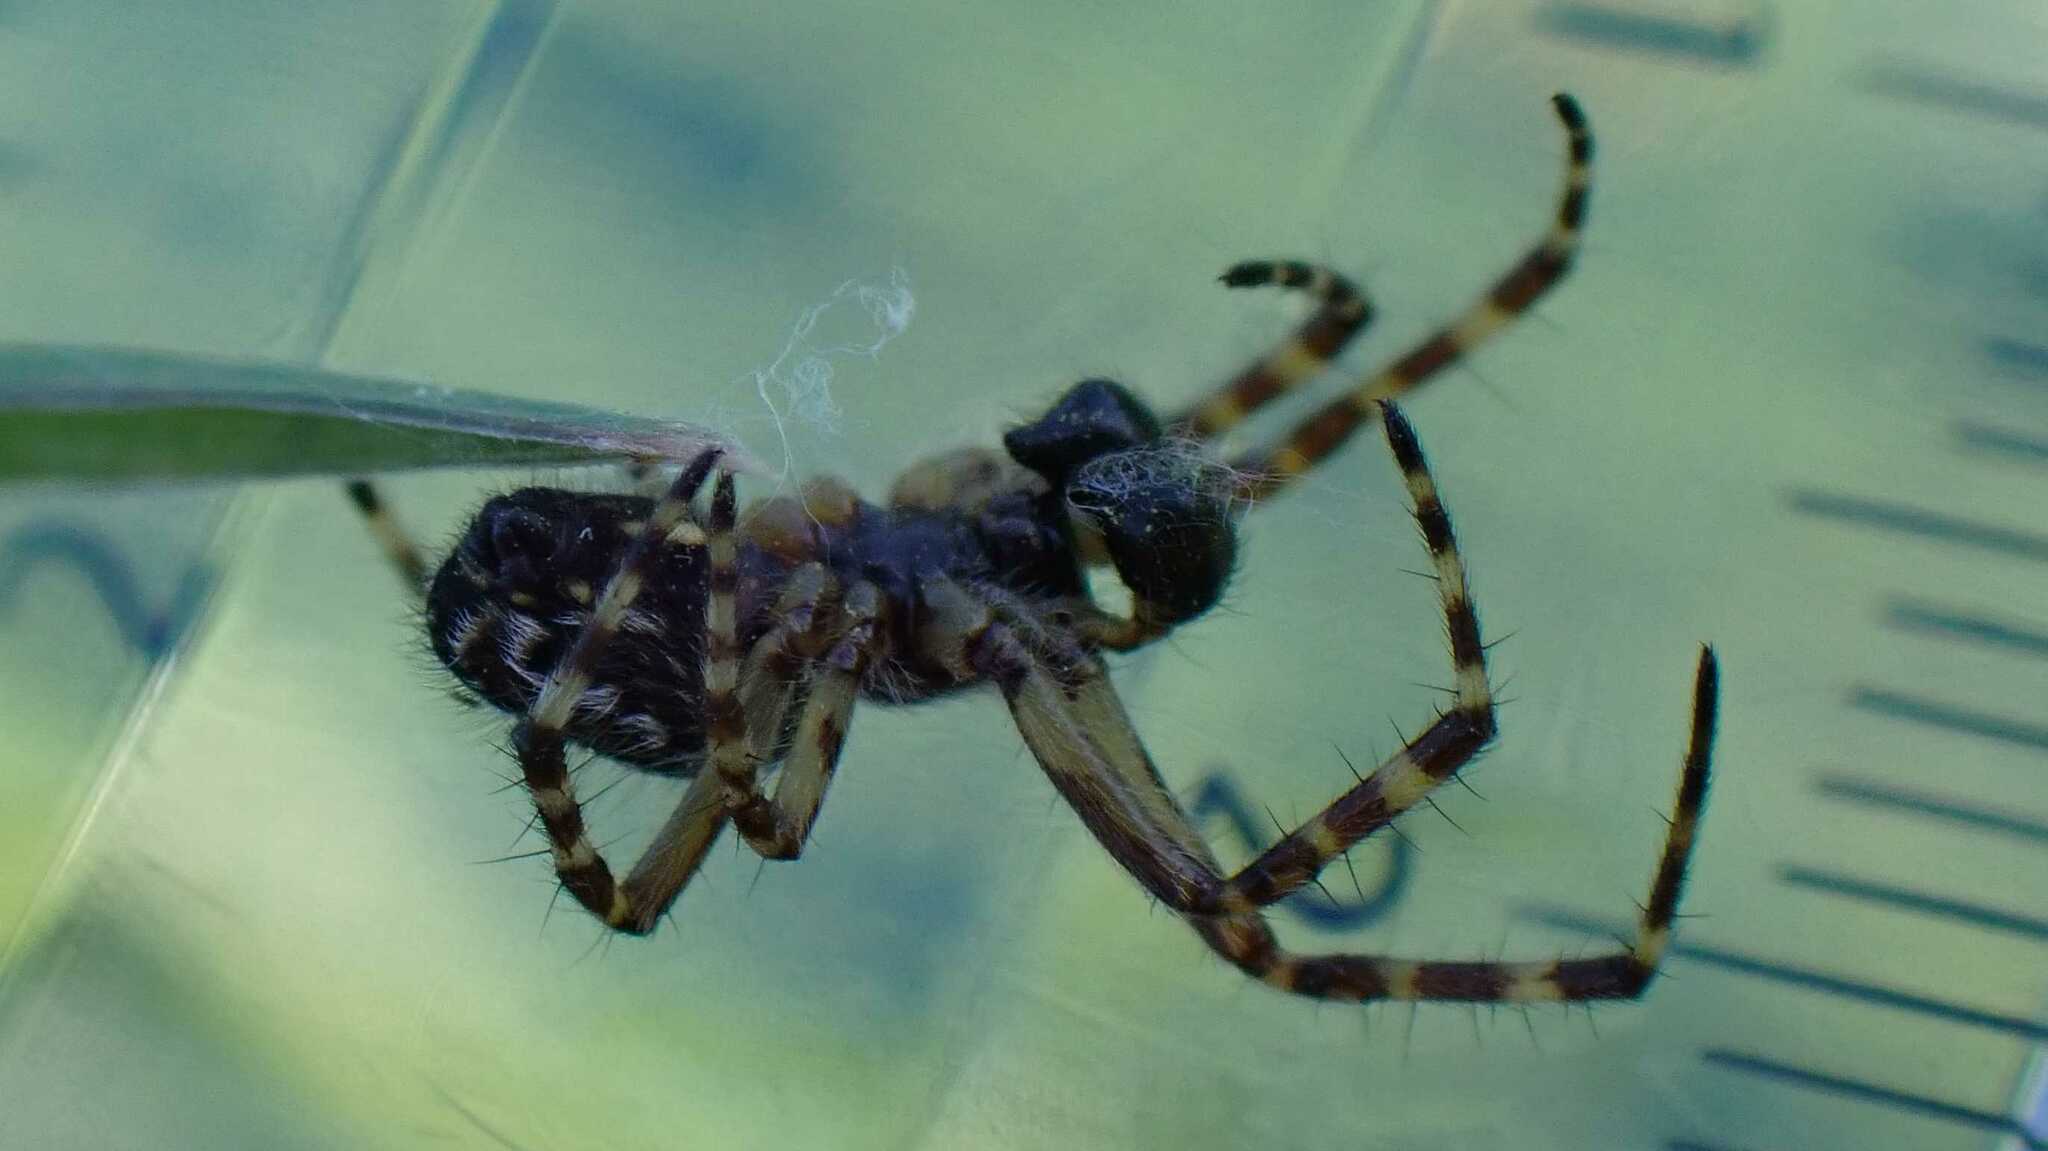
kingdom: Animalia
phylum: Arthropoda
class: Arachnida
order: Araneae
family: Araneidae
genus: Aculepeira
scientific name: Aculepeira ceropegia
